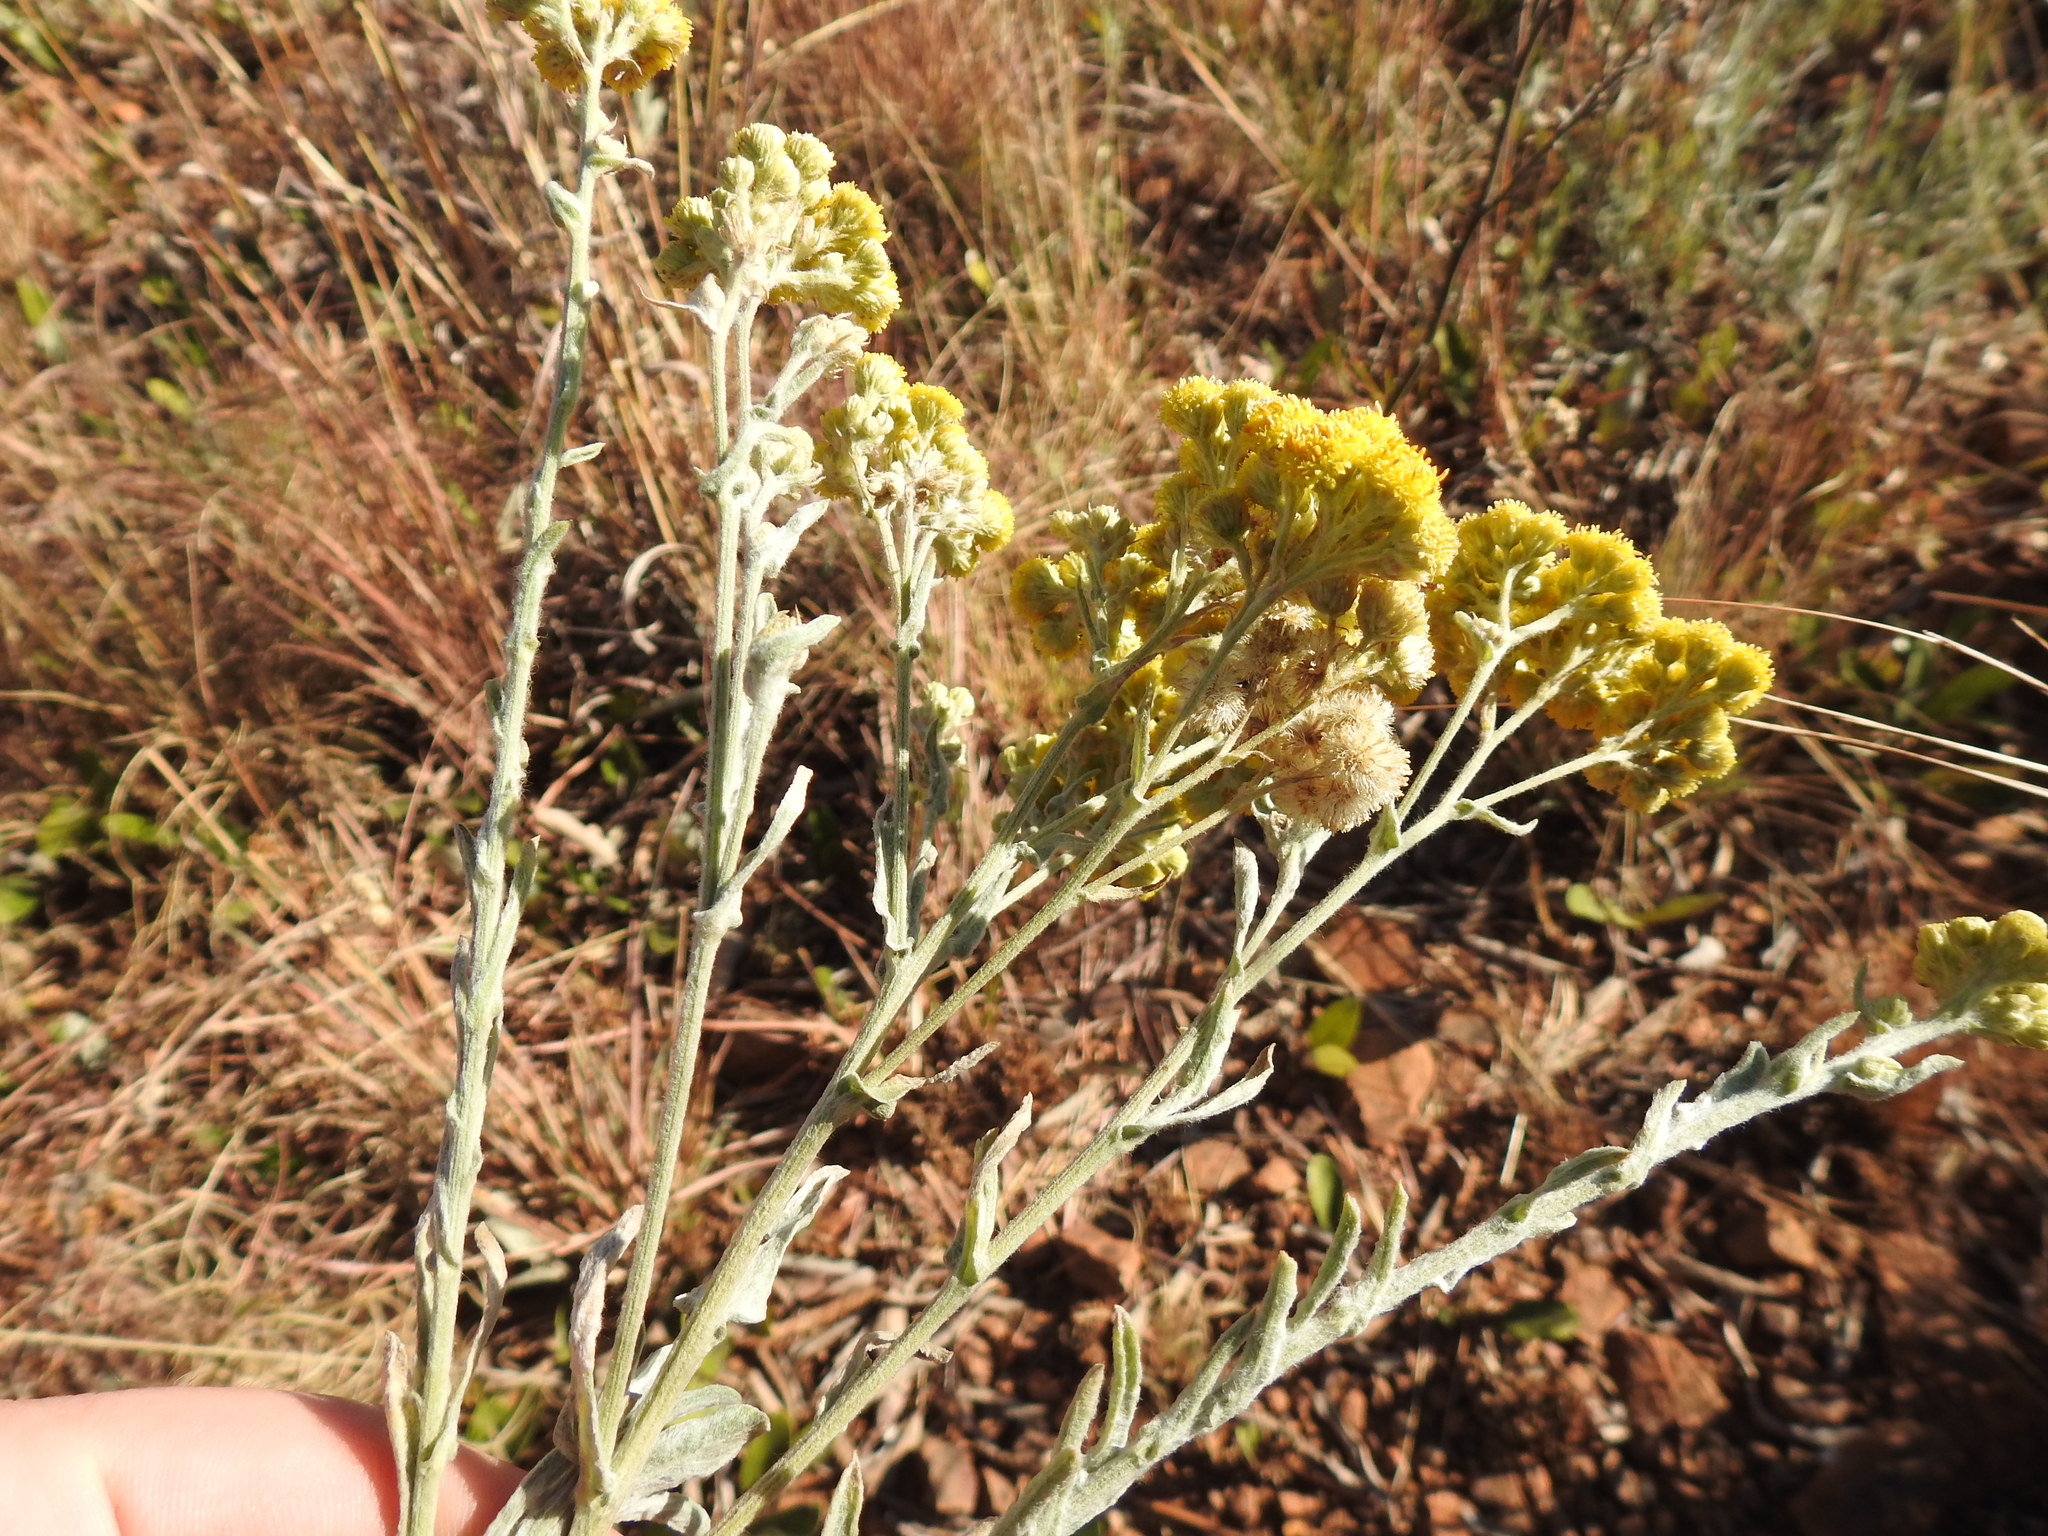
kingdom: Plantae
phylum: Tracheophyta
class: Magnoliopsida
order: Asterales
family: Asteraceae
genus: Nidorella
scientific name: Nidorella hottentotica
